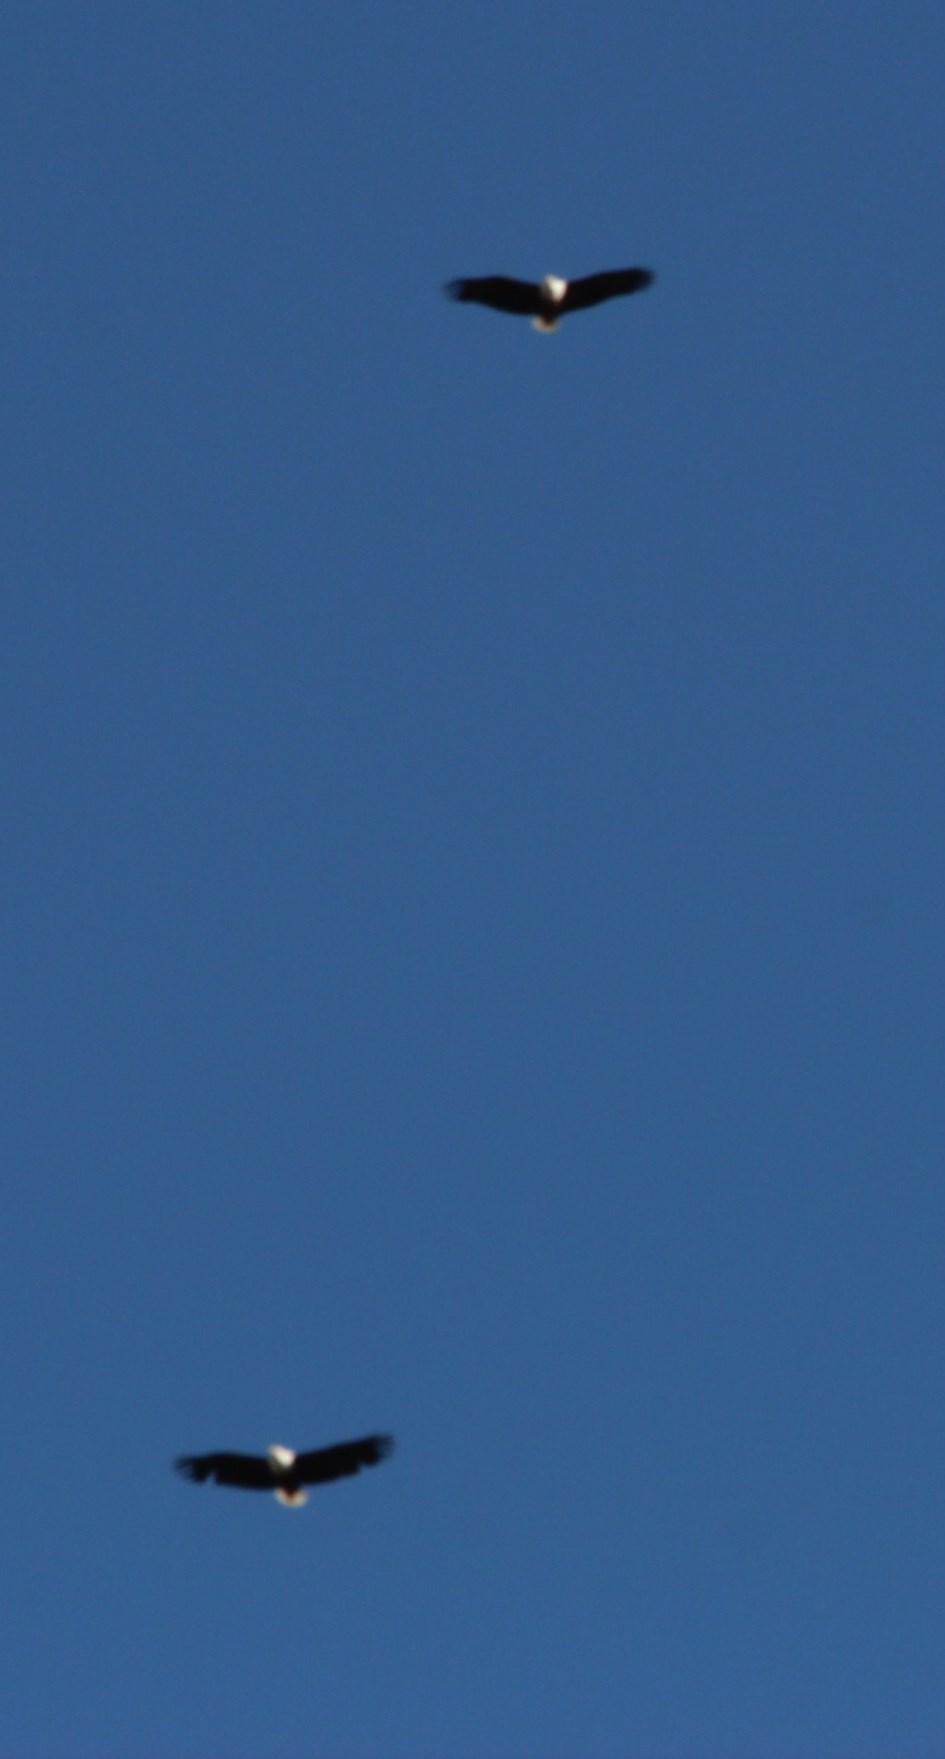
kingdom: Animalia
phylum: Chordata
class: Aves
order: Accipitriformes
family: Accipitridae
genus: Haliaeetus
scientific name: Haliaeetus vocifer
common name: African fish eagle
